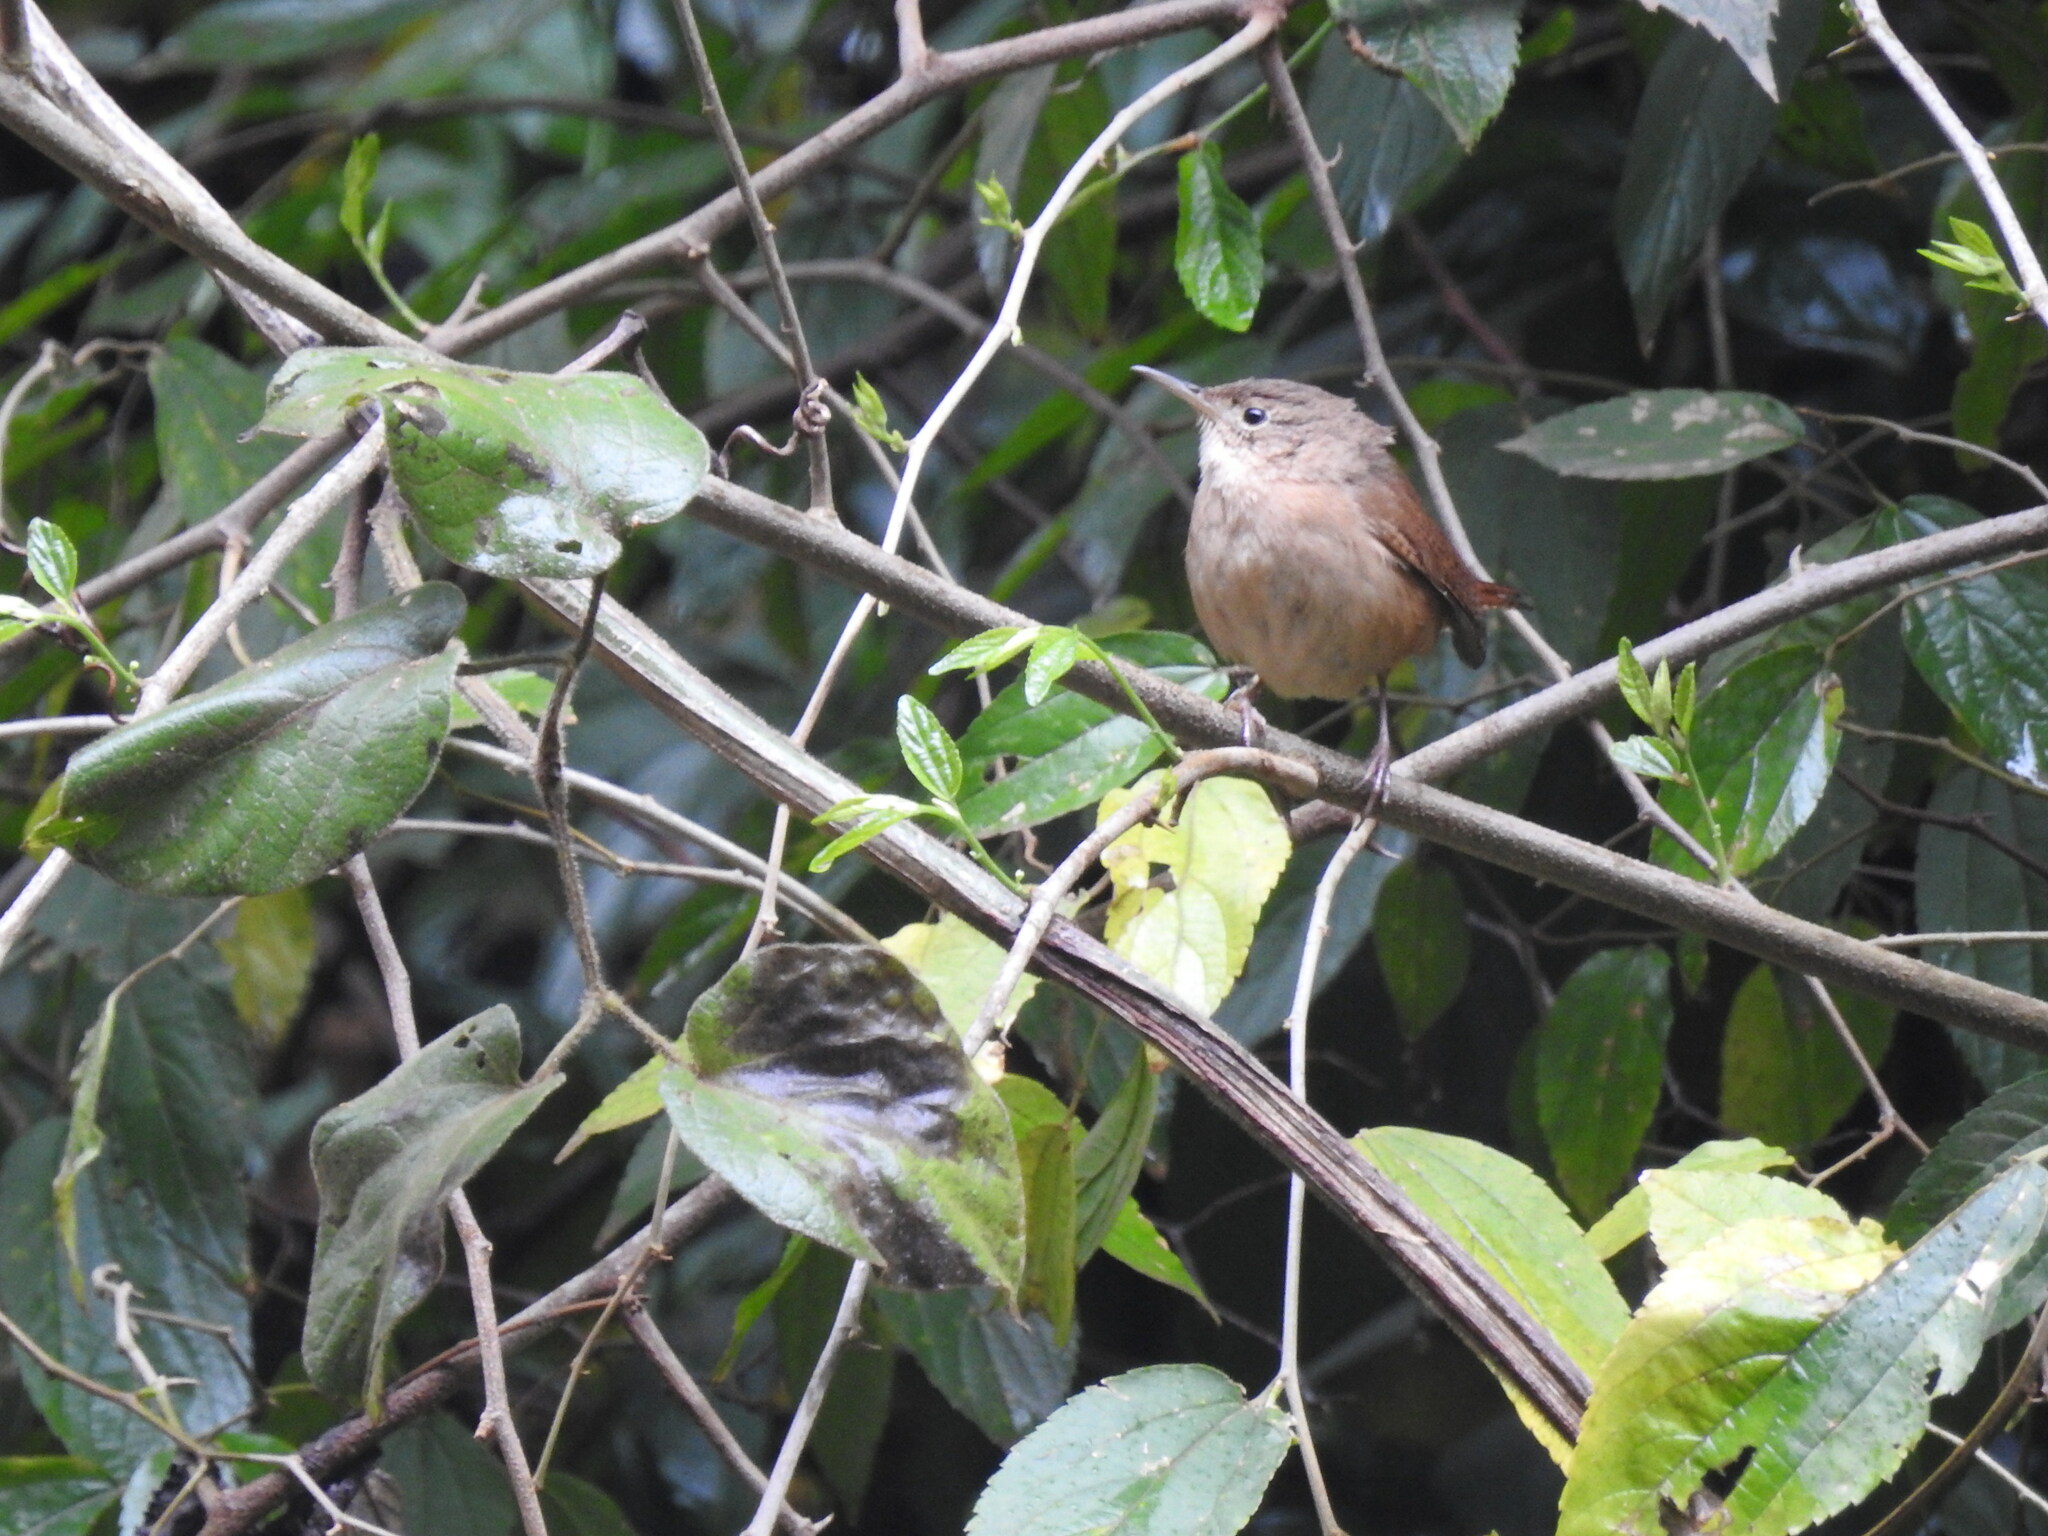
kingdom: Animalia
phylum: Chordata
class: Aves
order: Passeriformes
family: Troglodytidae
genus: Troglodytes
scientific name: Troglodytes aedon
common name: House wren
